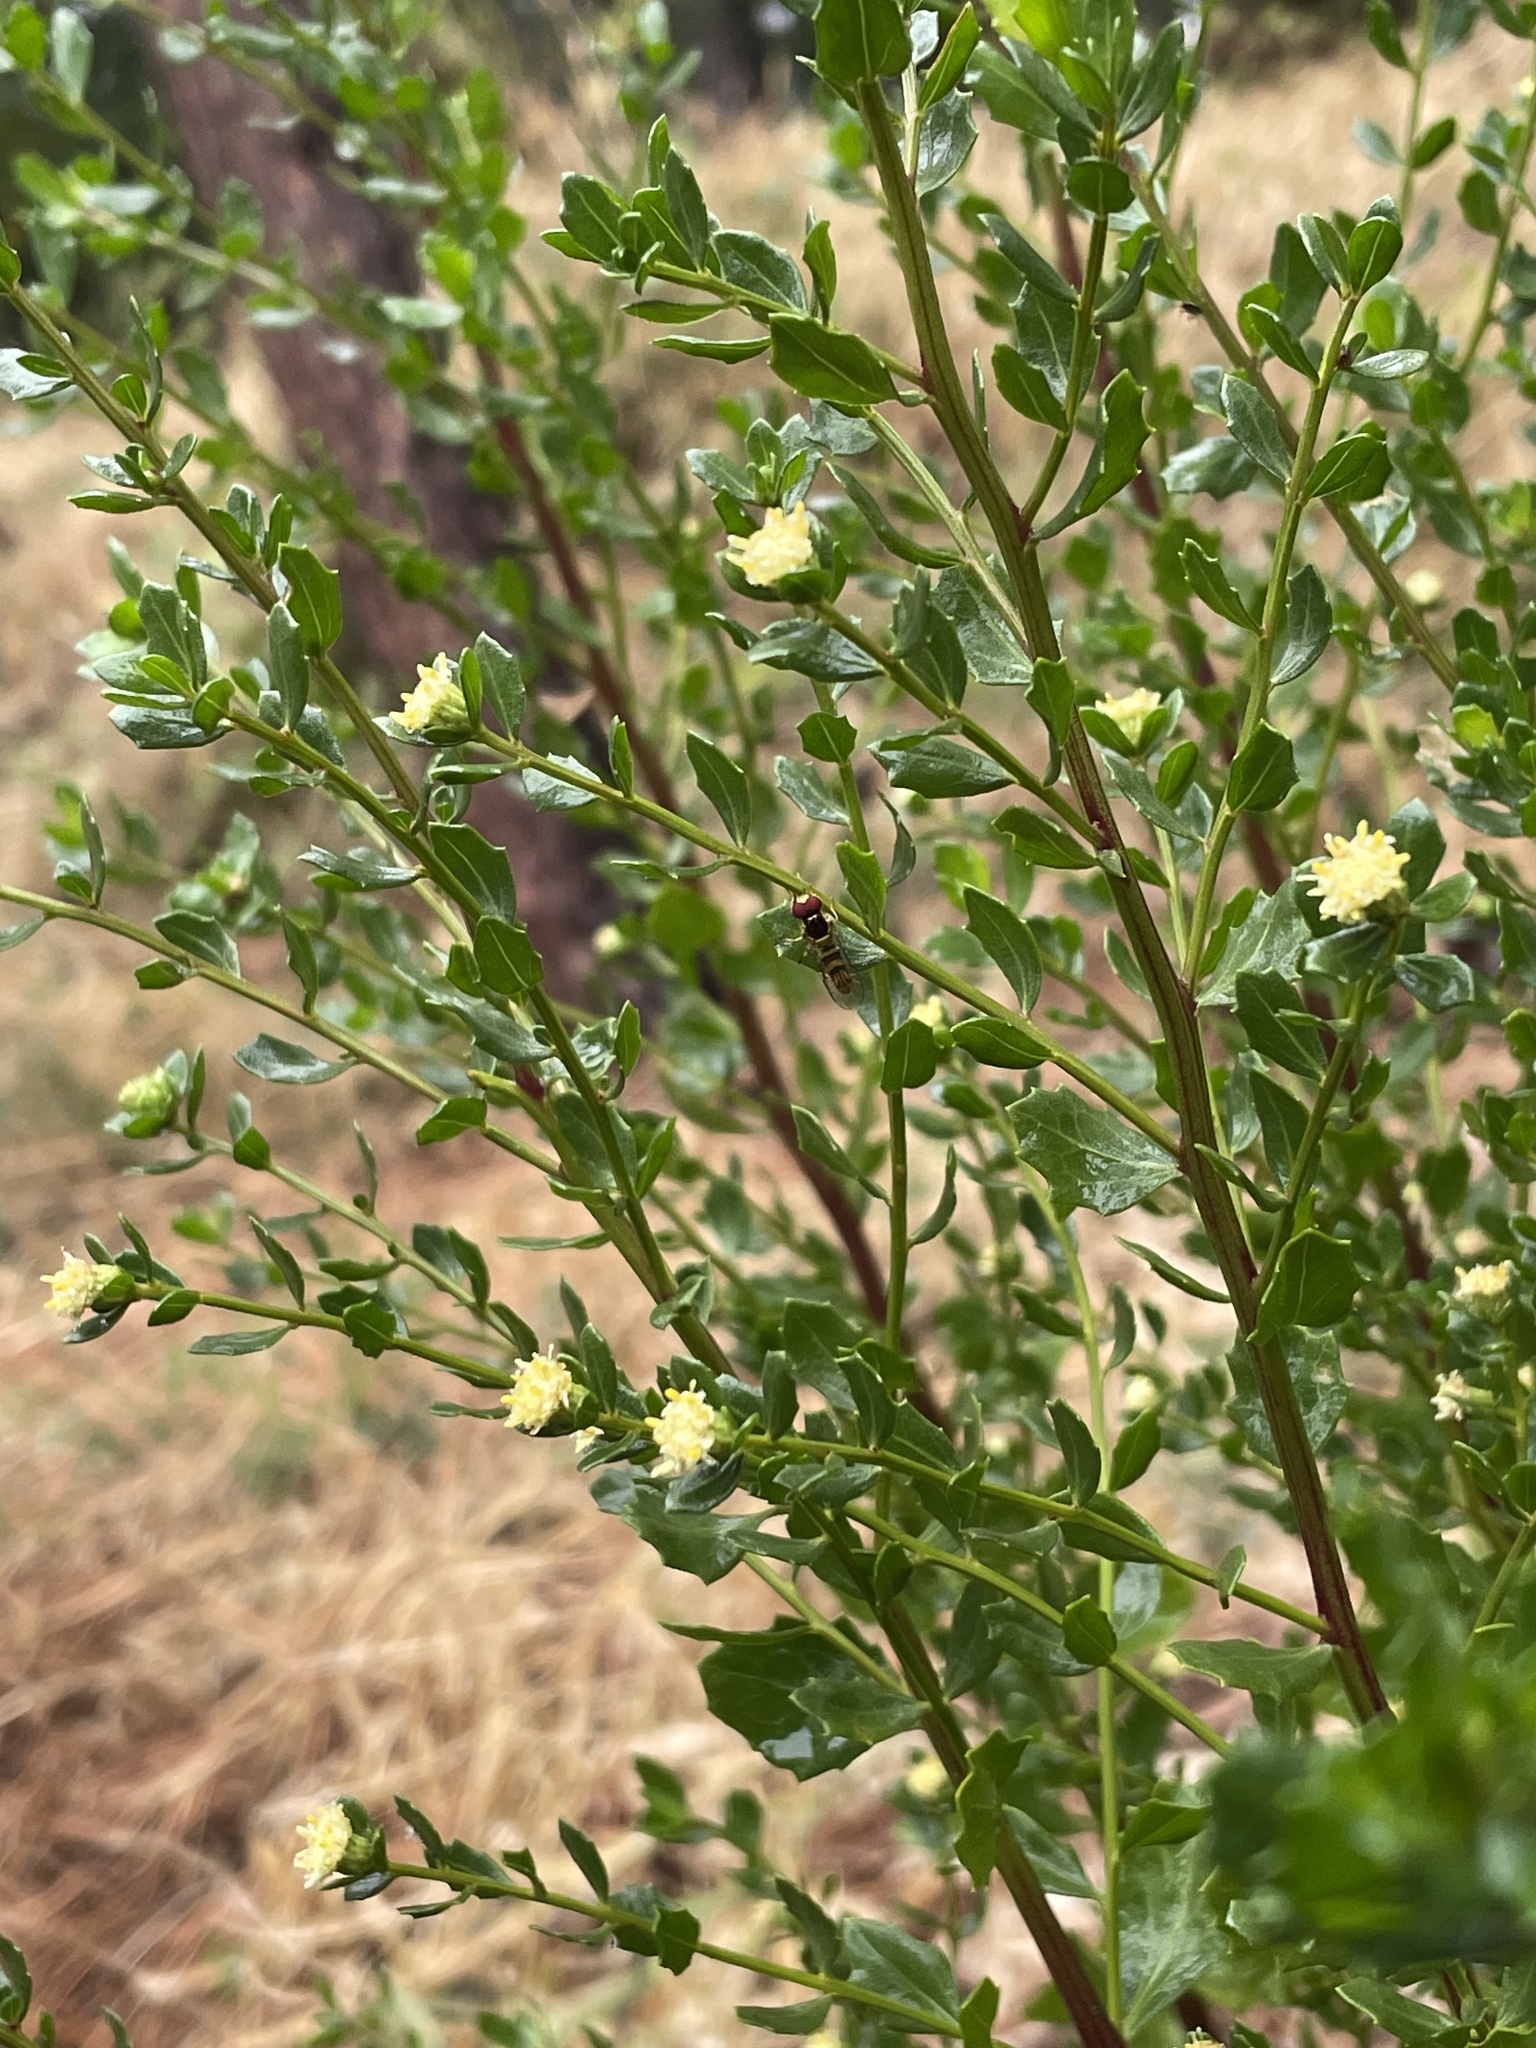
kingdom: Plantae
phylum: Tracheophyta
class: Magnoliopsida
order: Asterales
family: Asteraceae
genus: Baccharis
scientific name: Baccharis pilularis
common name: Coyotebrush
